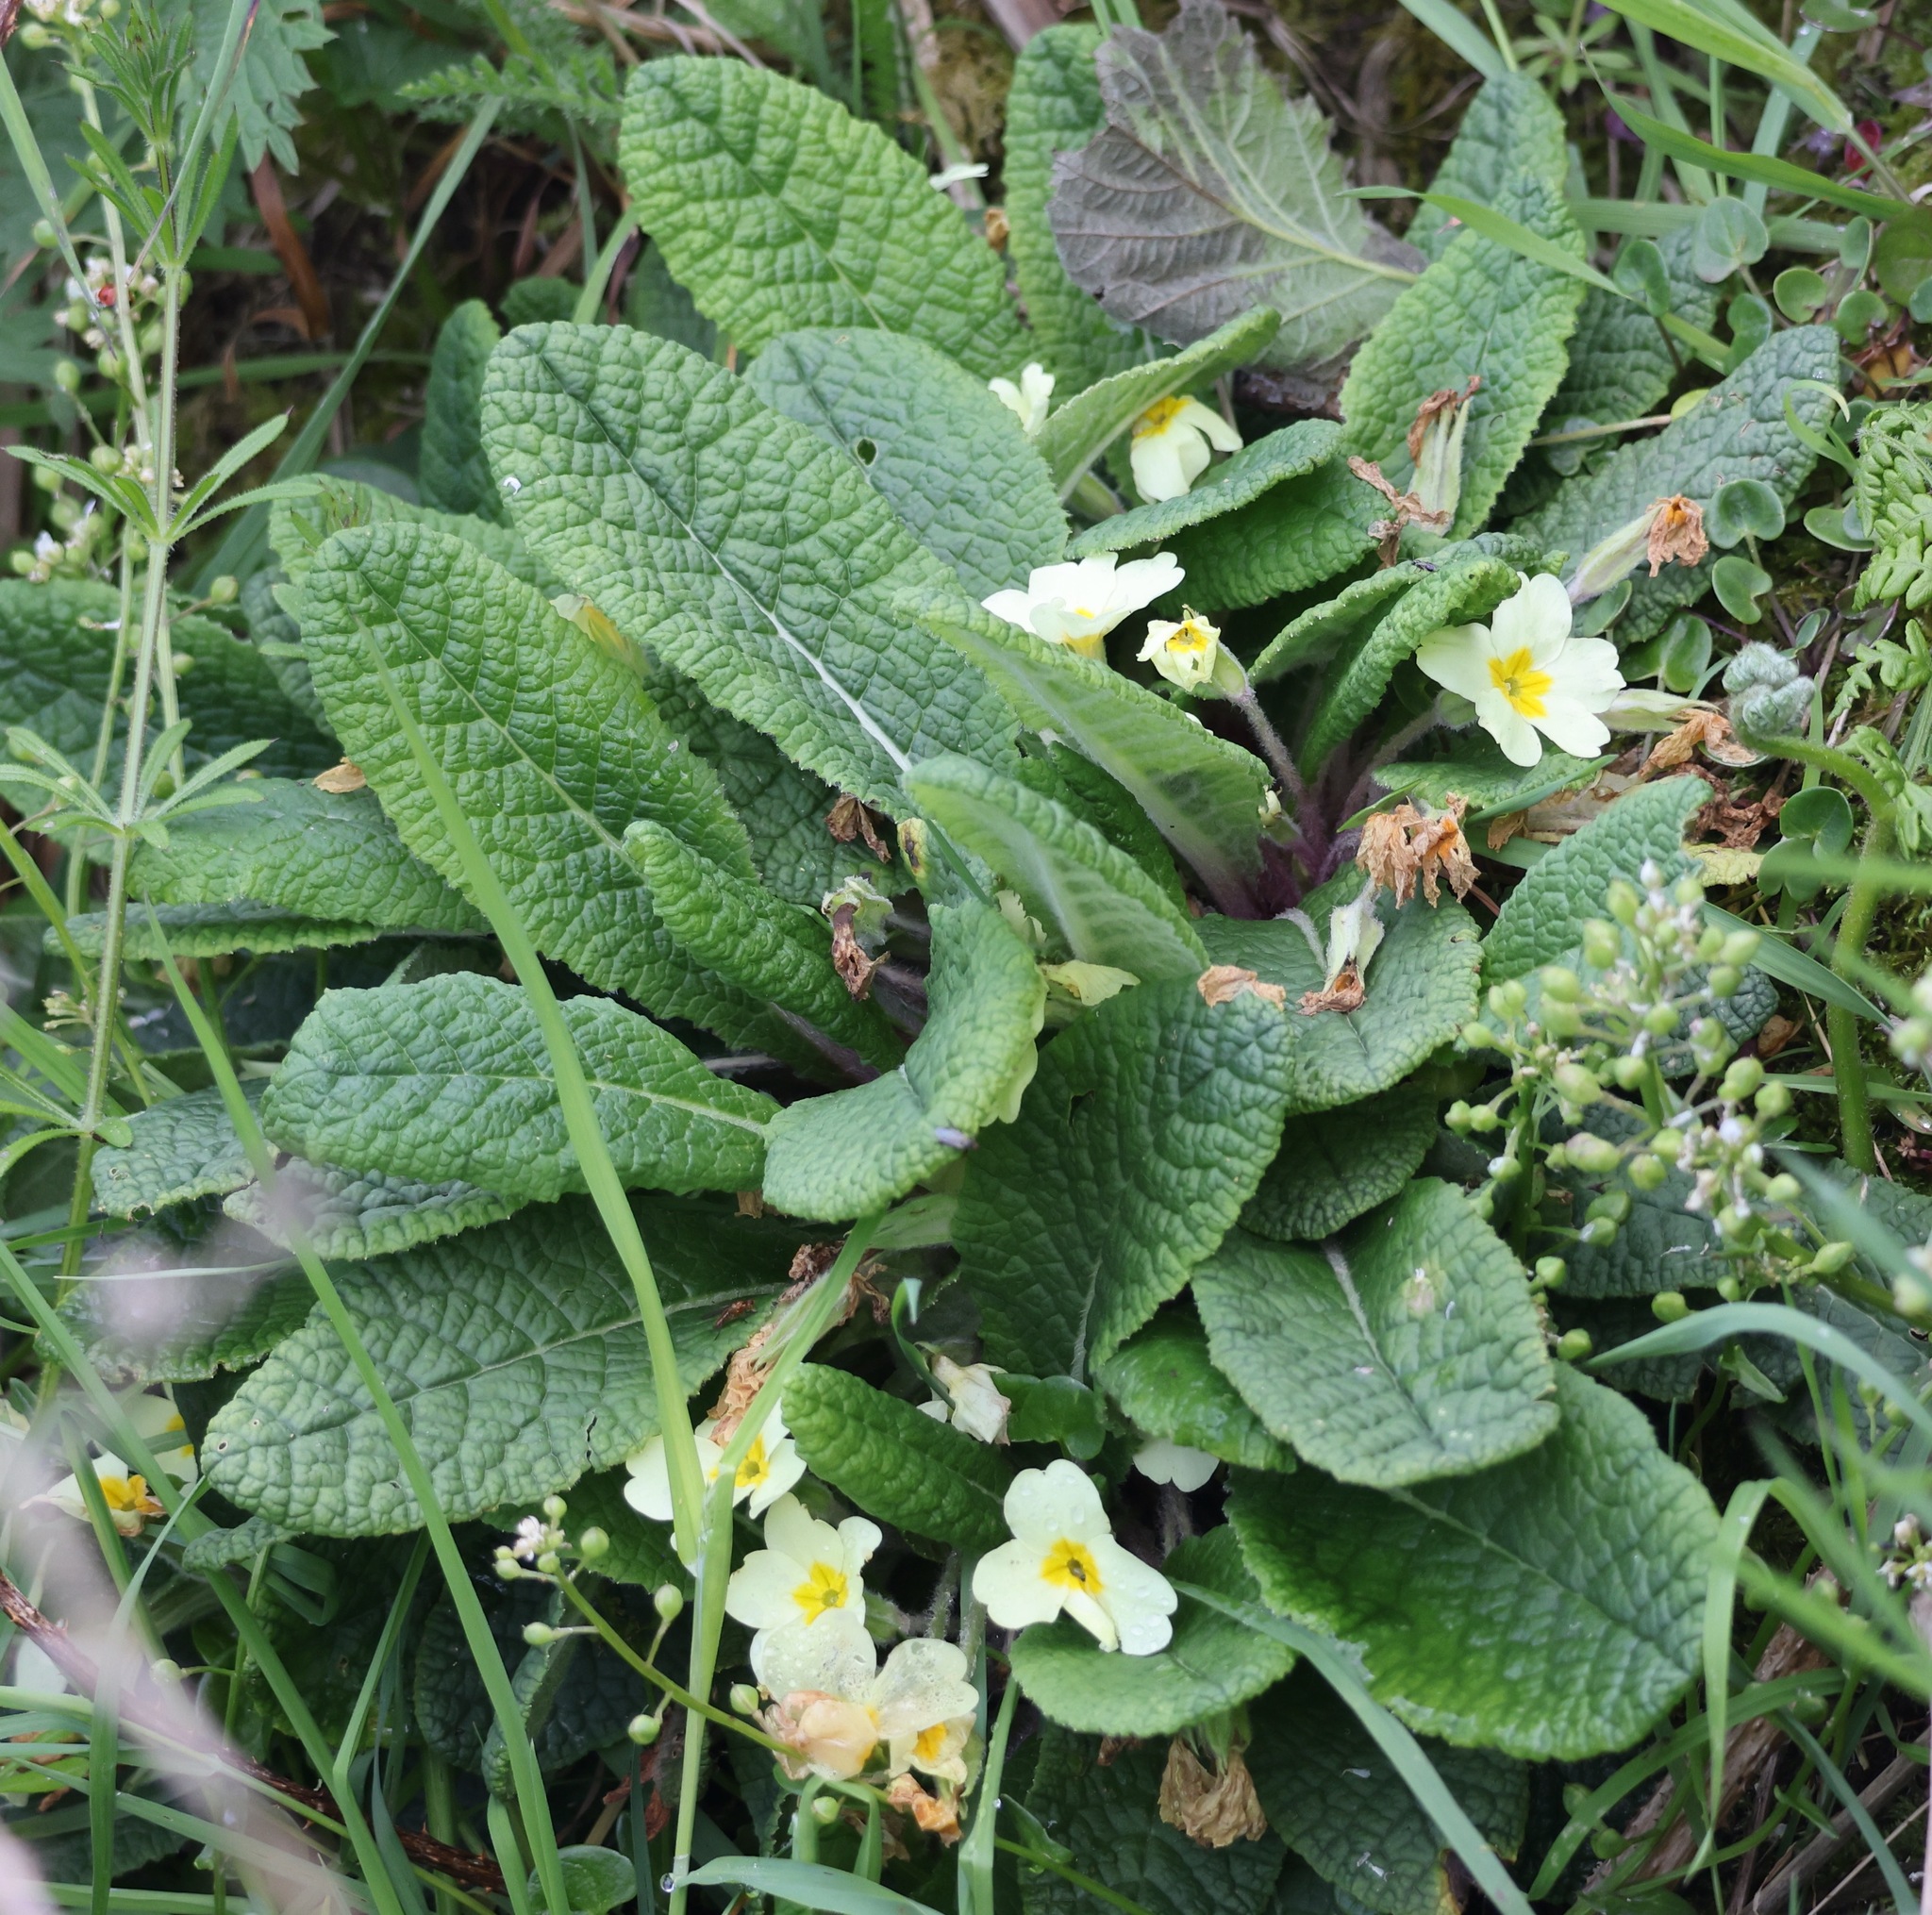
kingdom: Plantae
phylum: Tracheophyta
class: Magnoliopsida
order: Ericales
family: Primulaceae
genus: Primula
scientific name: Primula vulgaris
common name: Primrose
